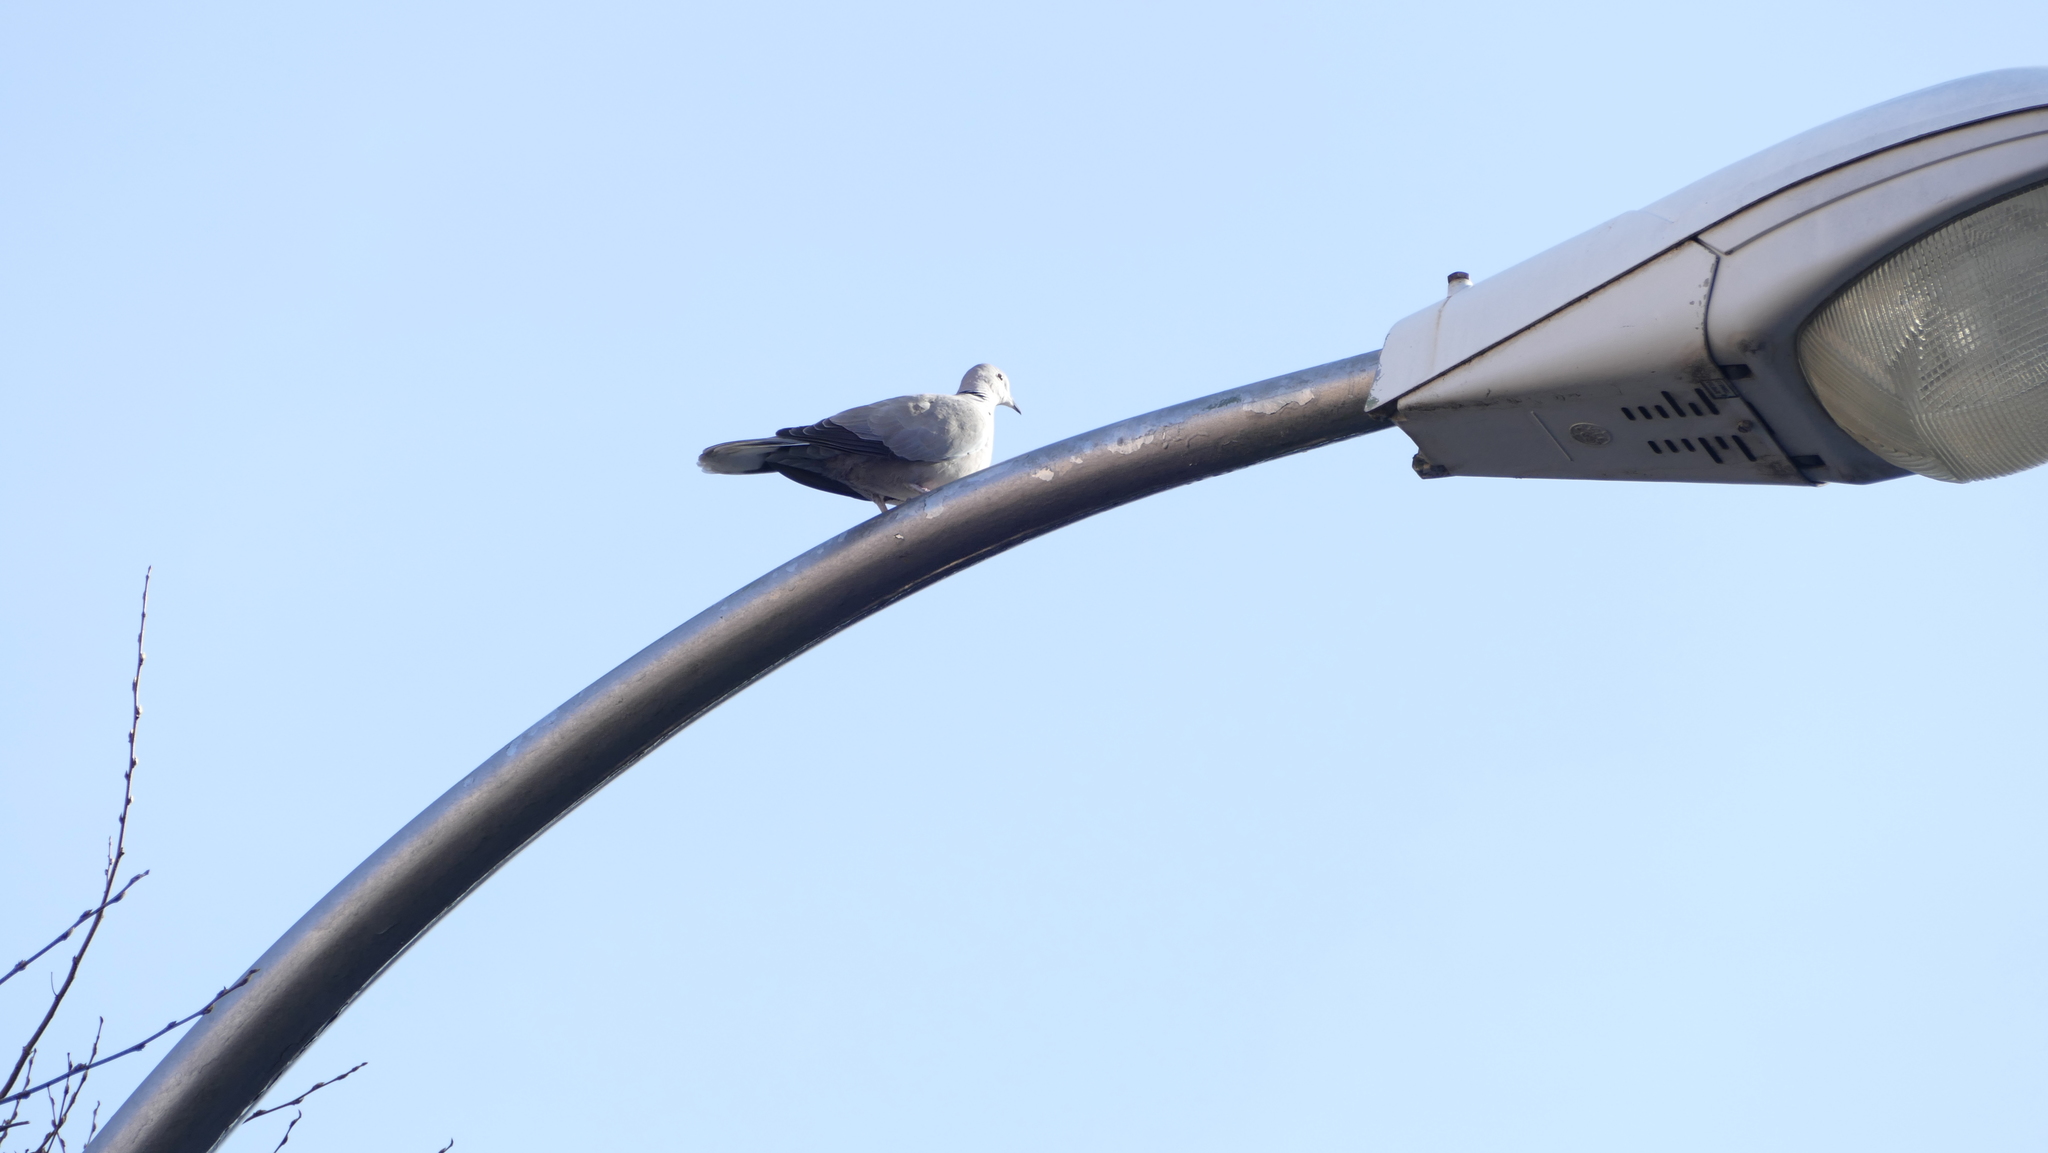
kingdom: Animalia
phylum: Chordata
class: Aves
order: Columbiformes
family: Columbidae
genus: Streptopelia
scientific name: Streptopelia decaocto
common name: Eurasian collared dove
